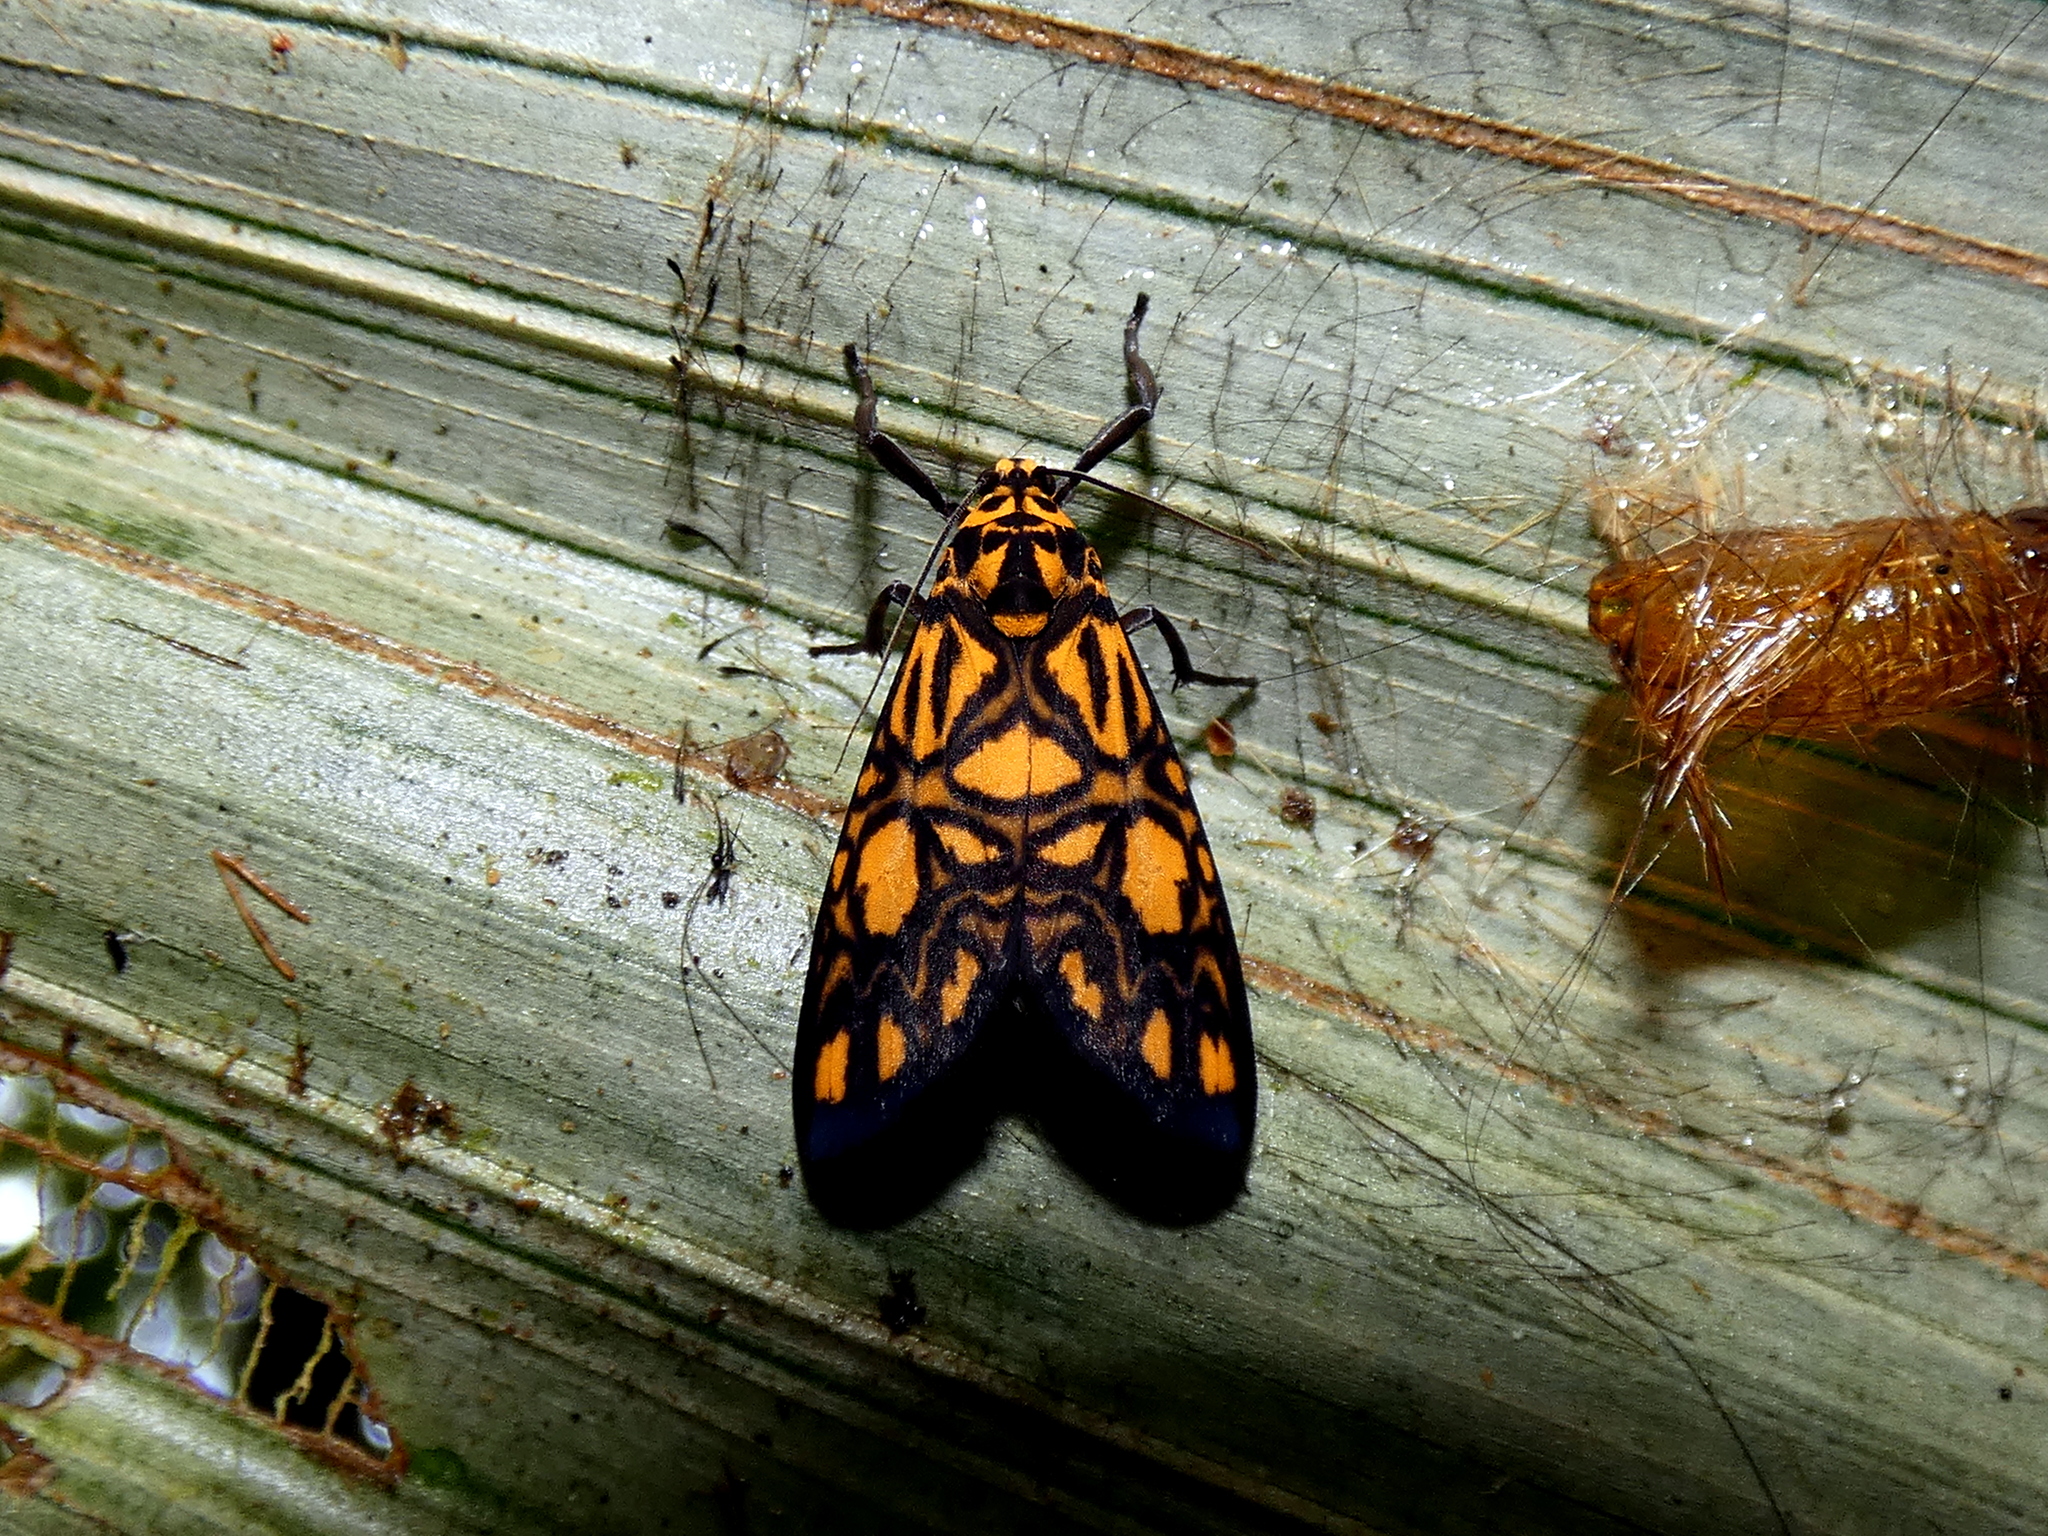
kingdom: Animalia
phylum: Arthropoda
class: Insecta
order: Lepidoptera
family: Erebidae
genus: Graptasura
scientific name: Graptasura trilacunata
